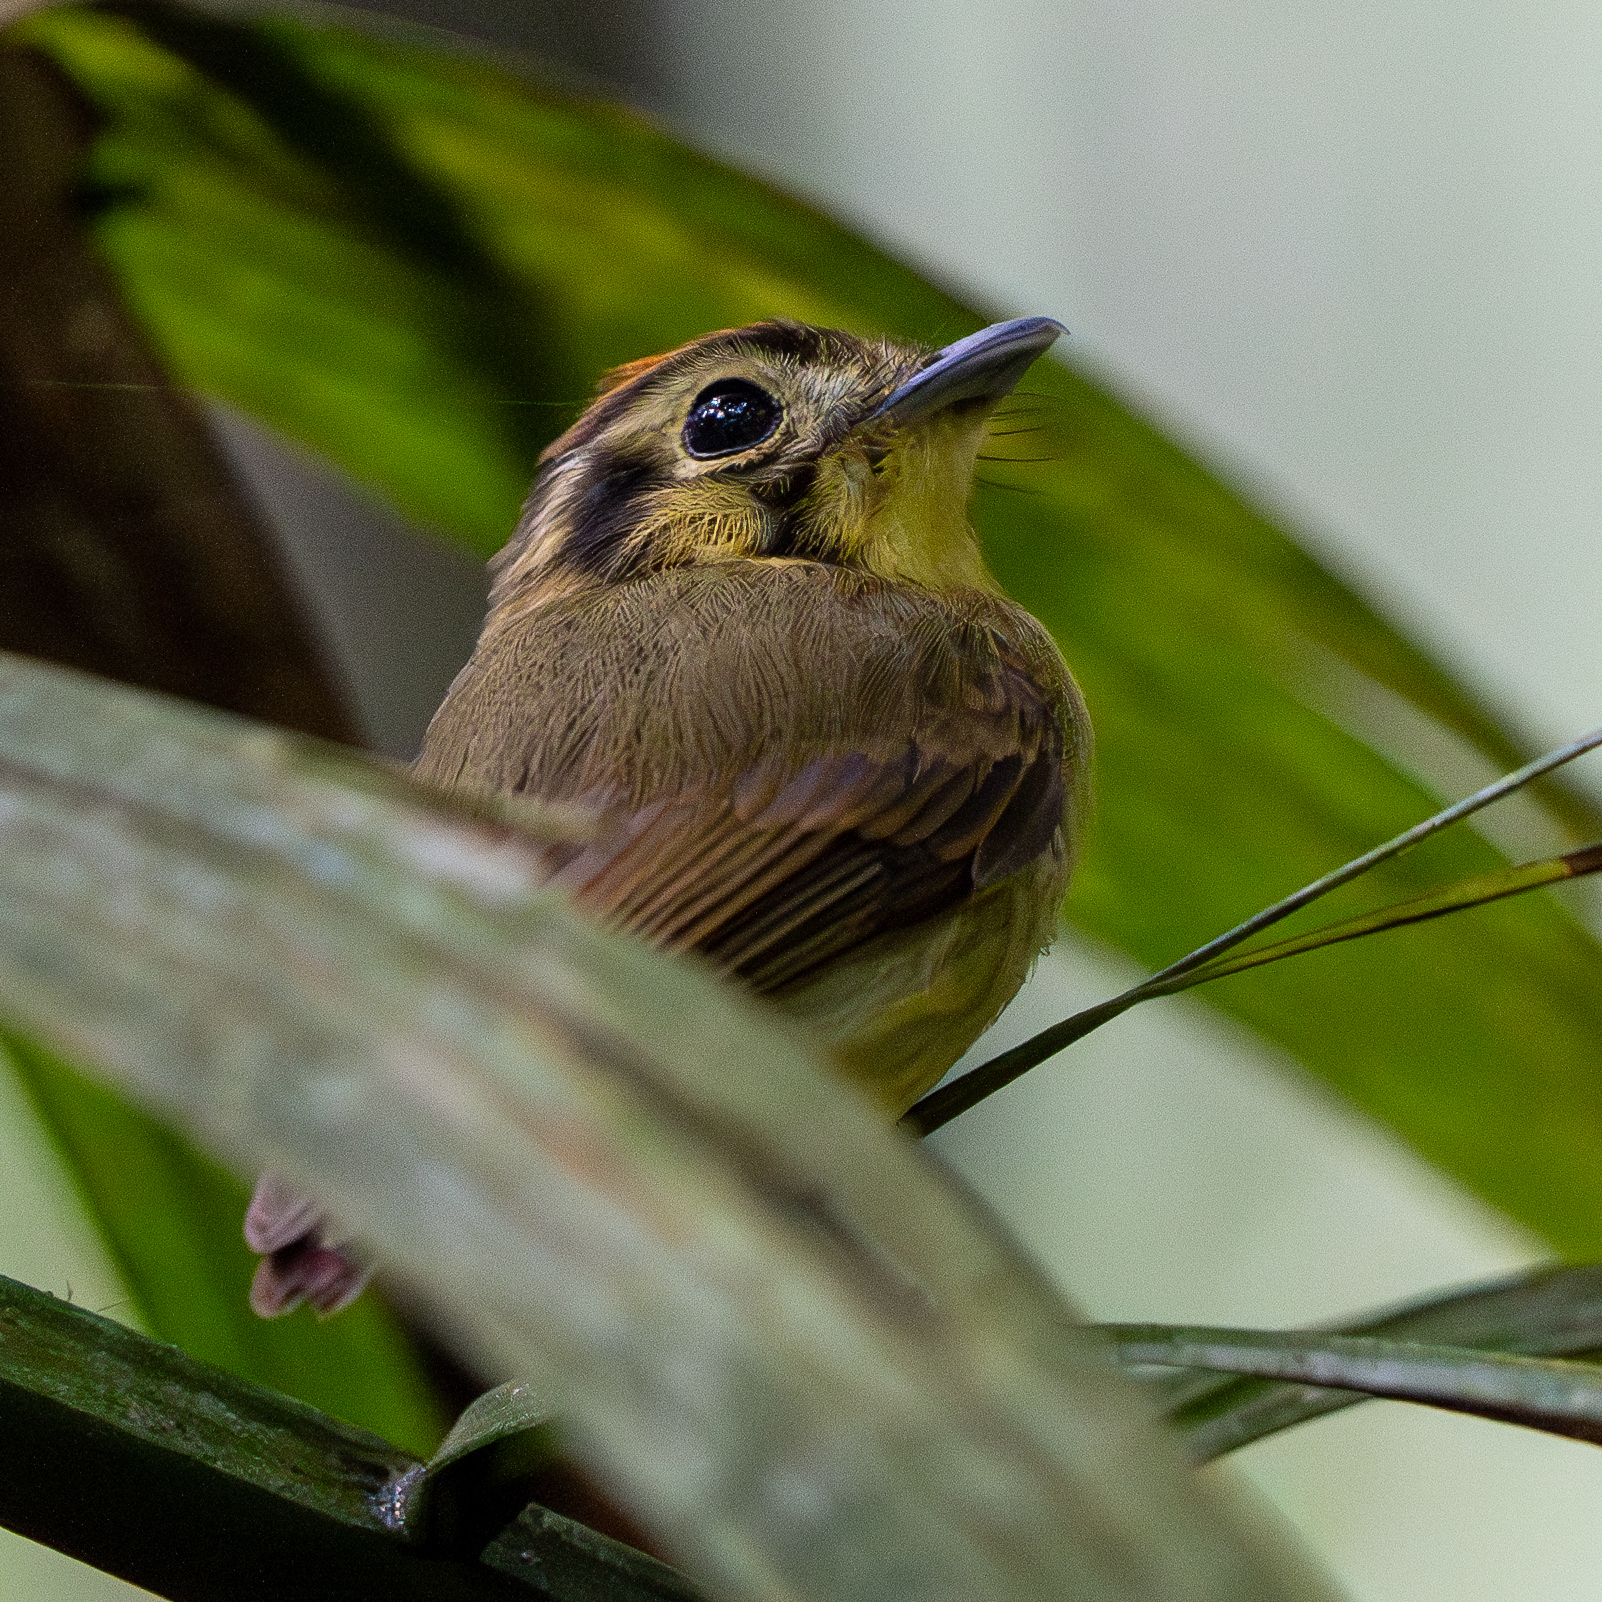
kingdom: Animalia
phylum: Chordata
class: Aves
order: Passeriformes
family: Tyrannidae
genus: Platyrinchus
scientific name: Platyrinchus coronatus
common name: Golden-crowned spadebill
